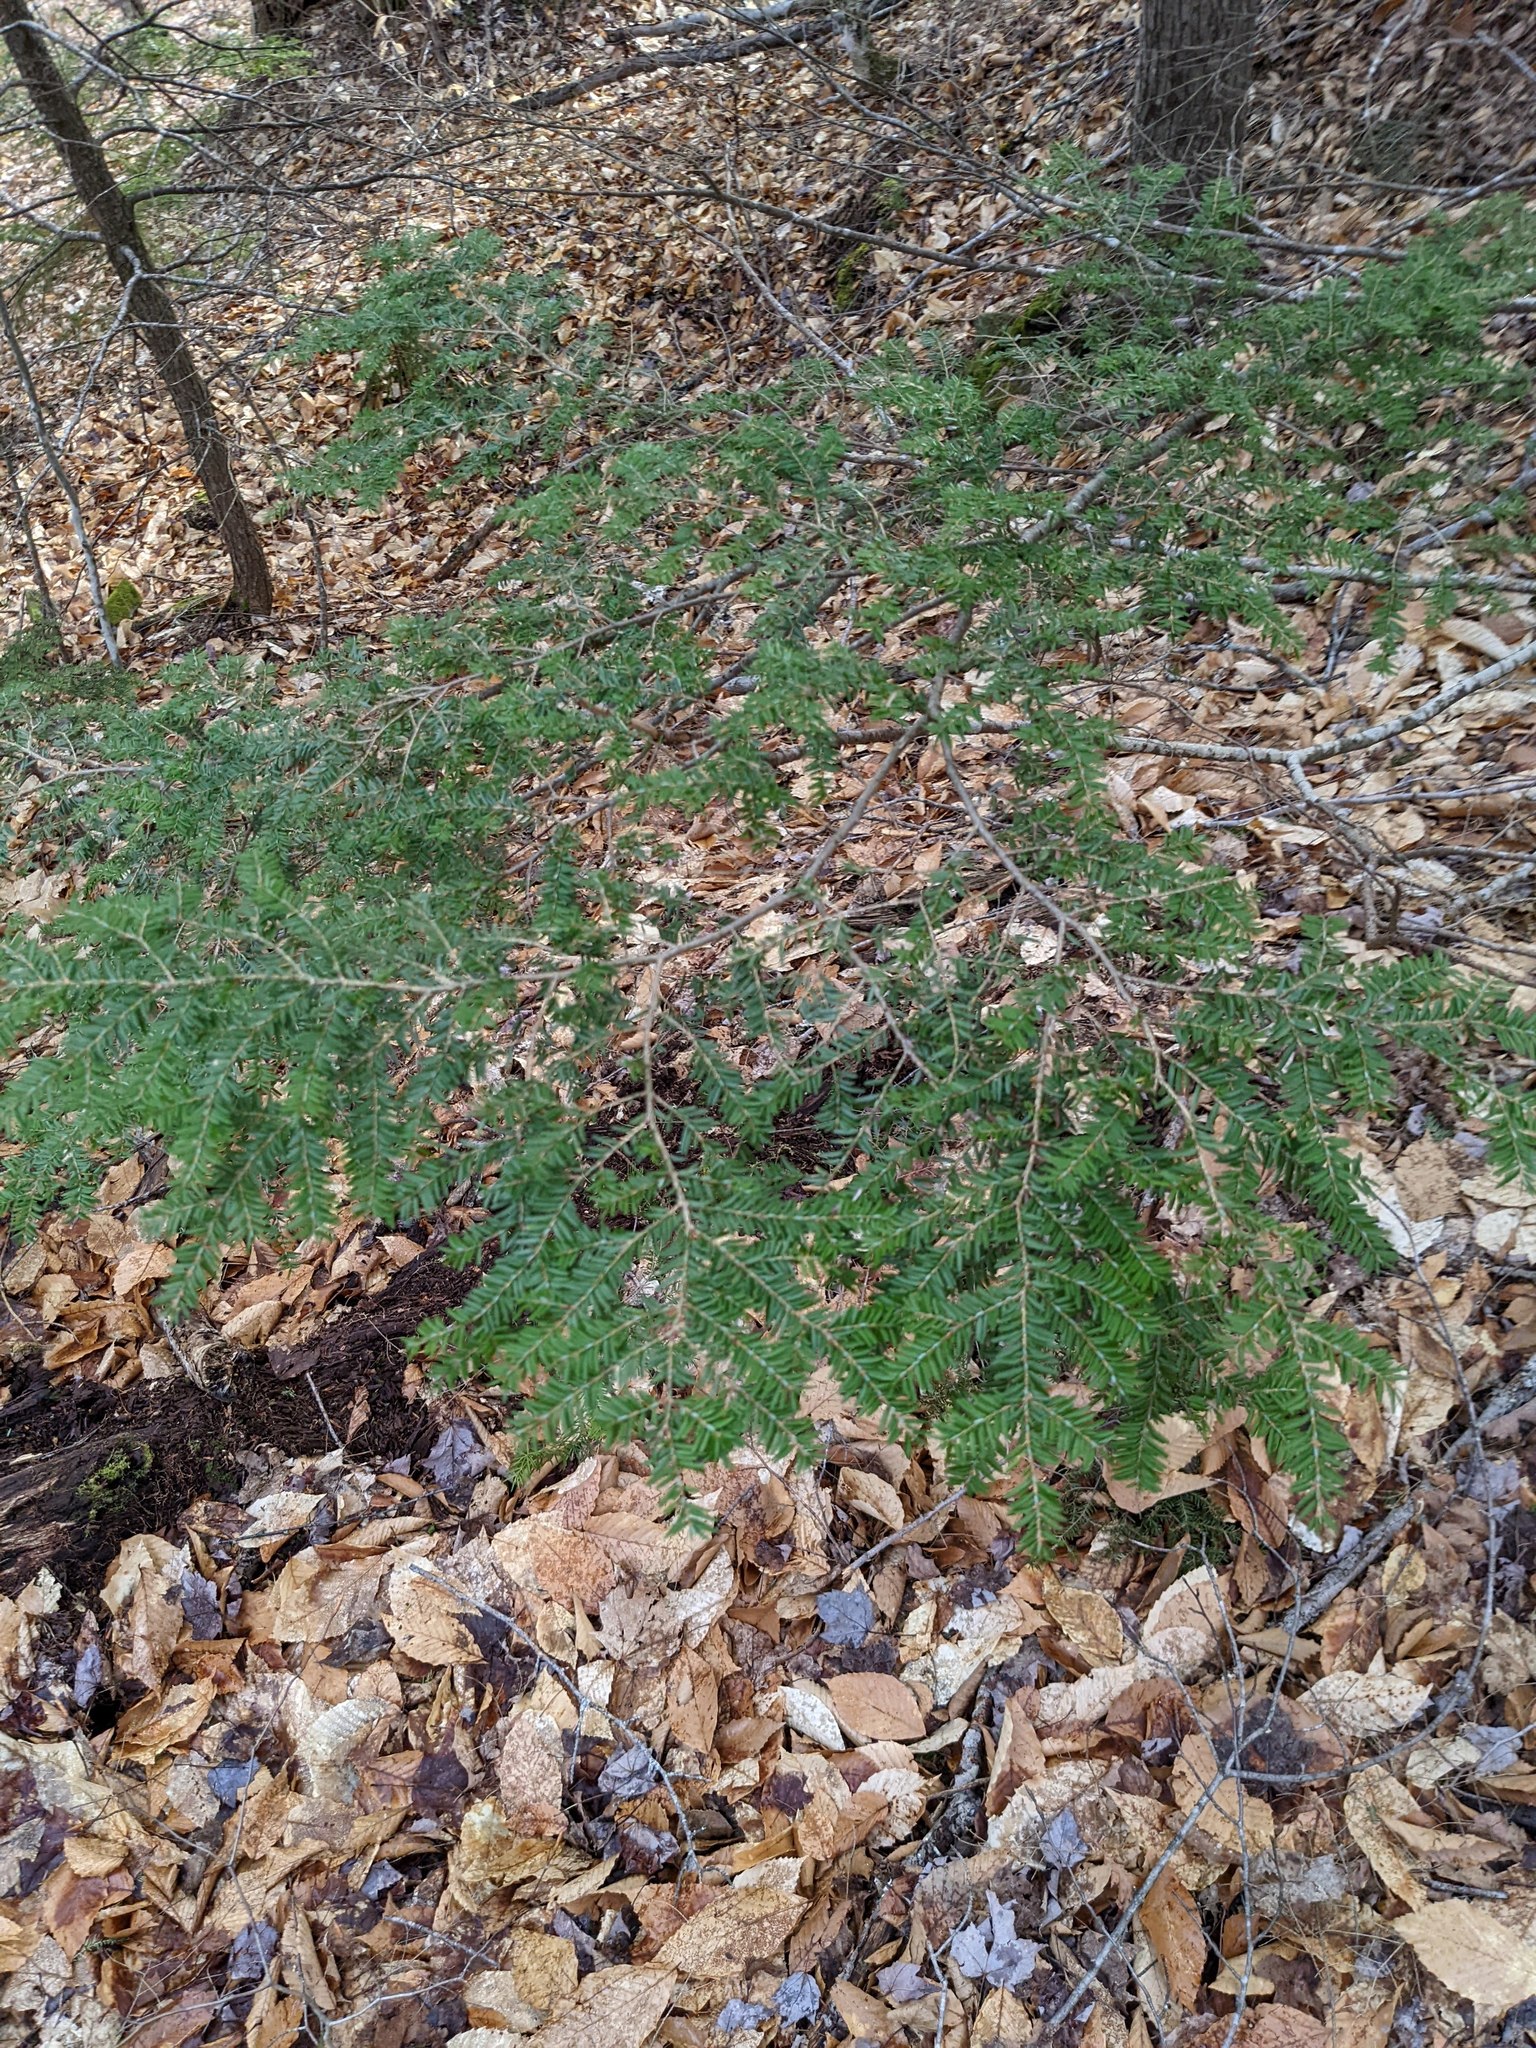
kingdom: Plantae
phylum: Tracheophyta
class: Pinopsida
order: Pinales
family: Pinaceae
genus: Tsuga
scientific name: Tsuga canadensis
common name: Eastern hemlock
